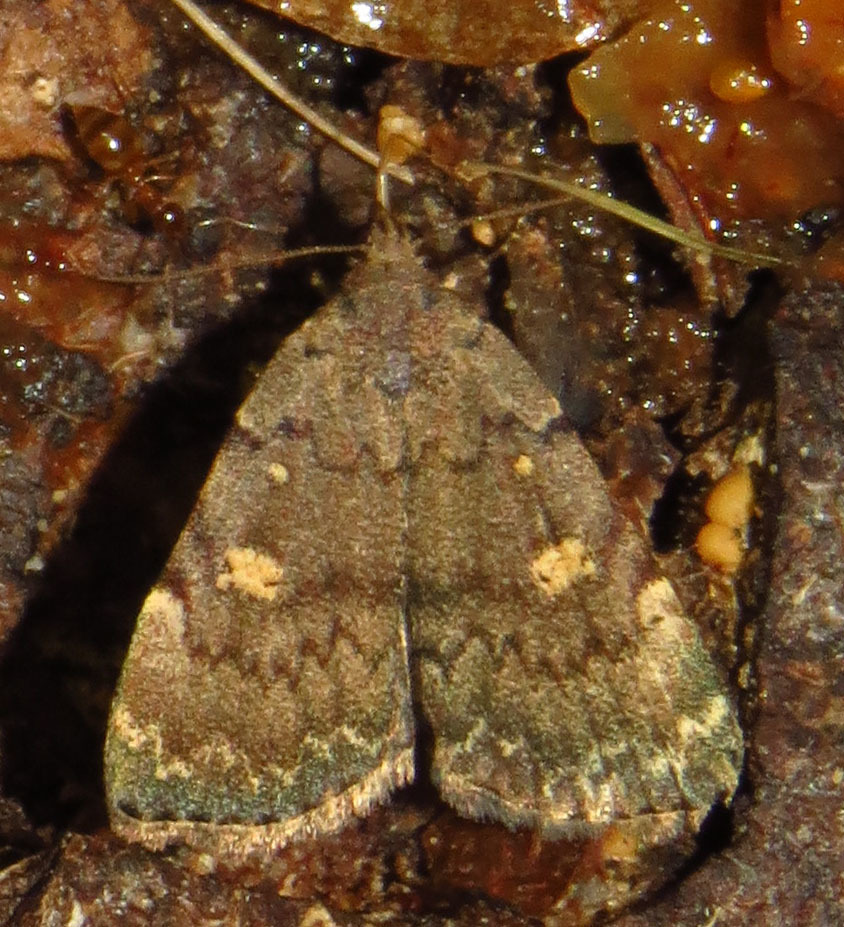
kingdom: Animalia
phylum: Arthropoda
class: Insecta
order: Lepidoptera
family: Erebidae
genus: Idia
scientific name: Idia aemula
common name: Common idia moth
